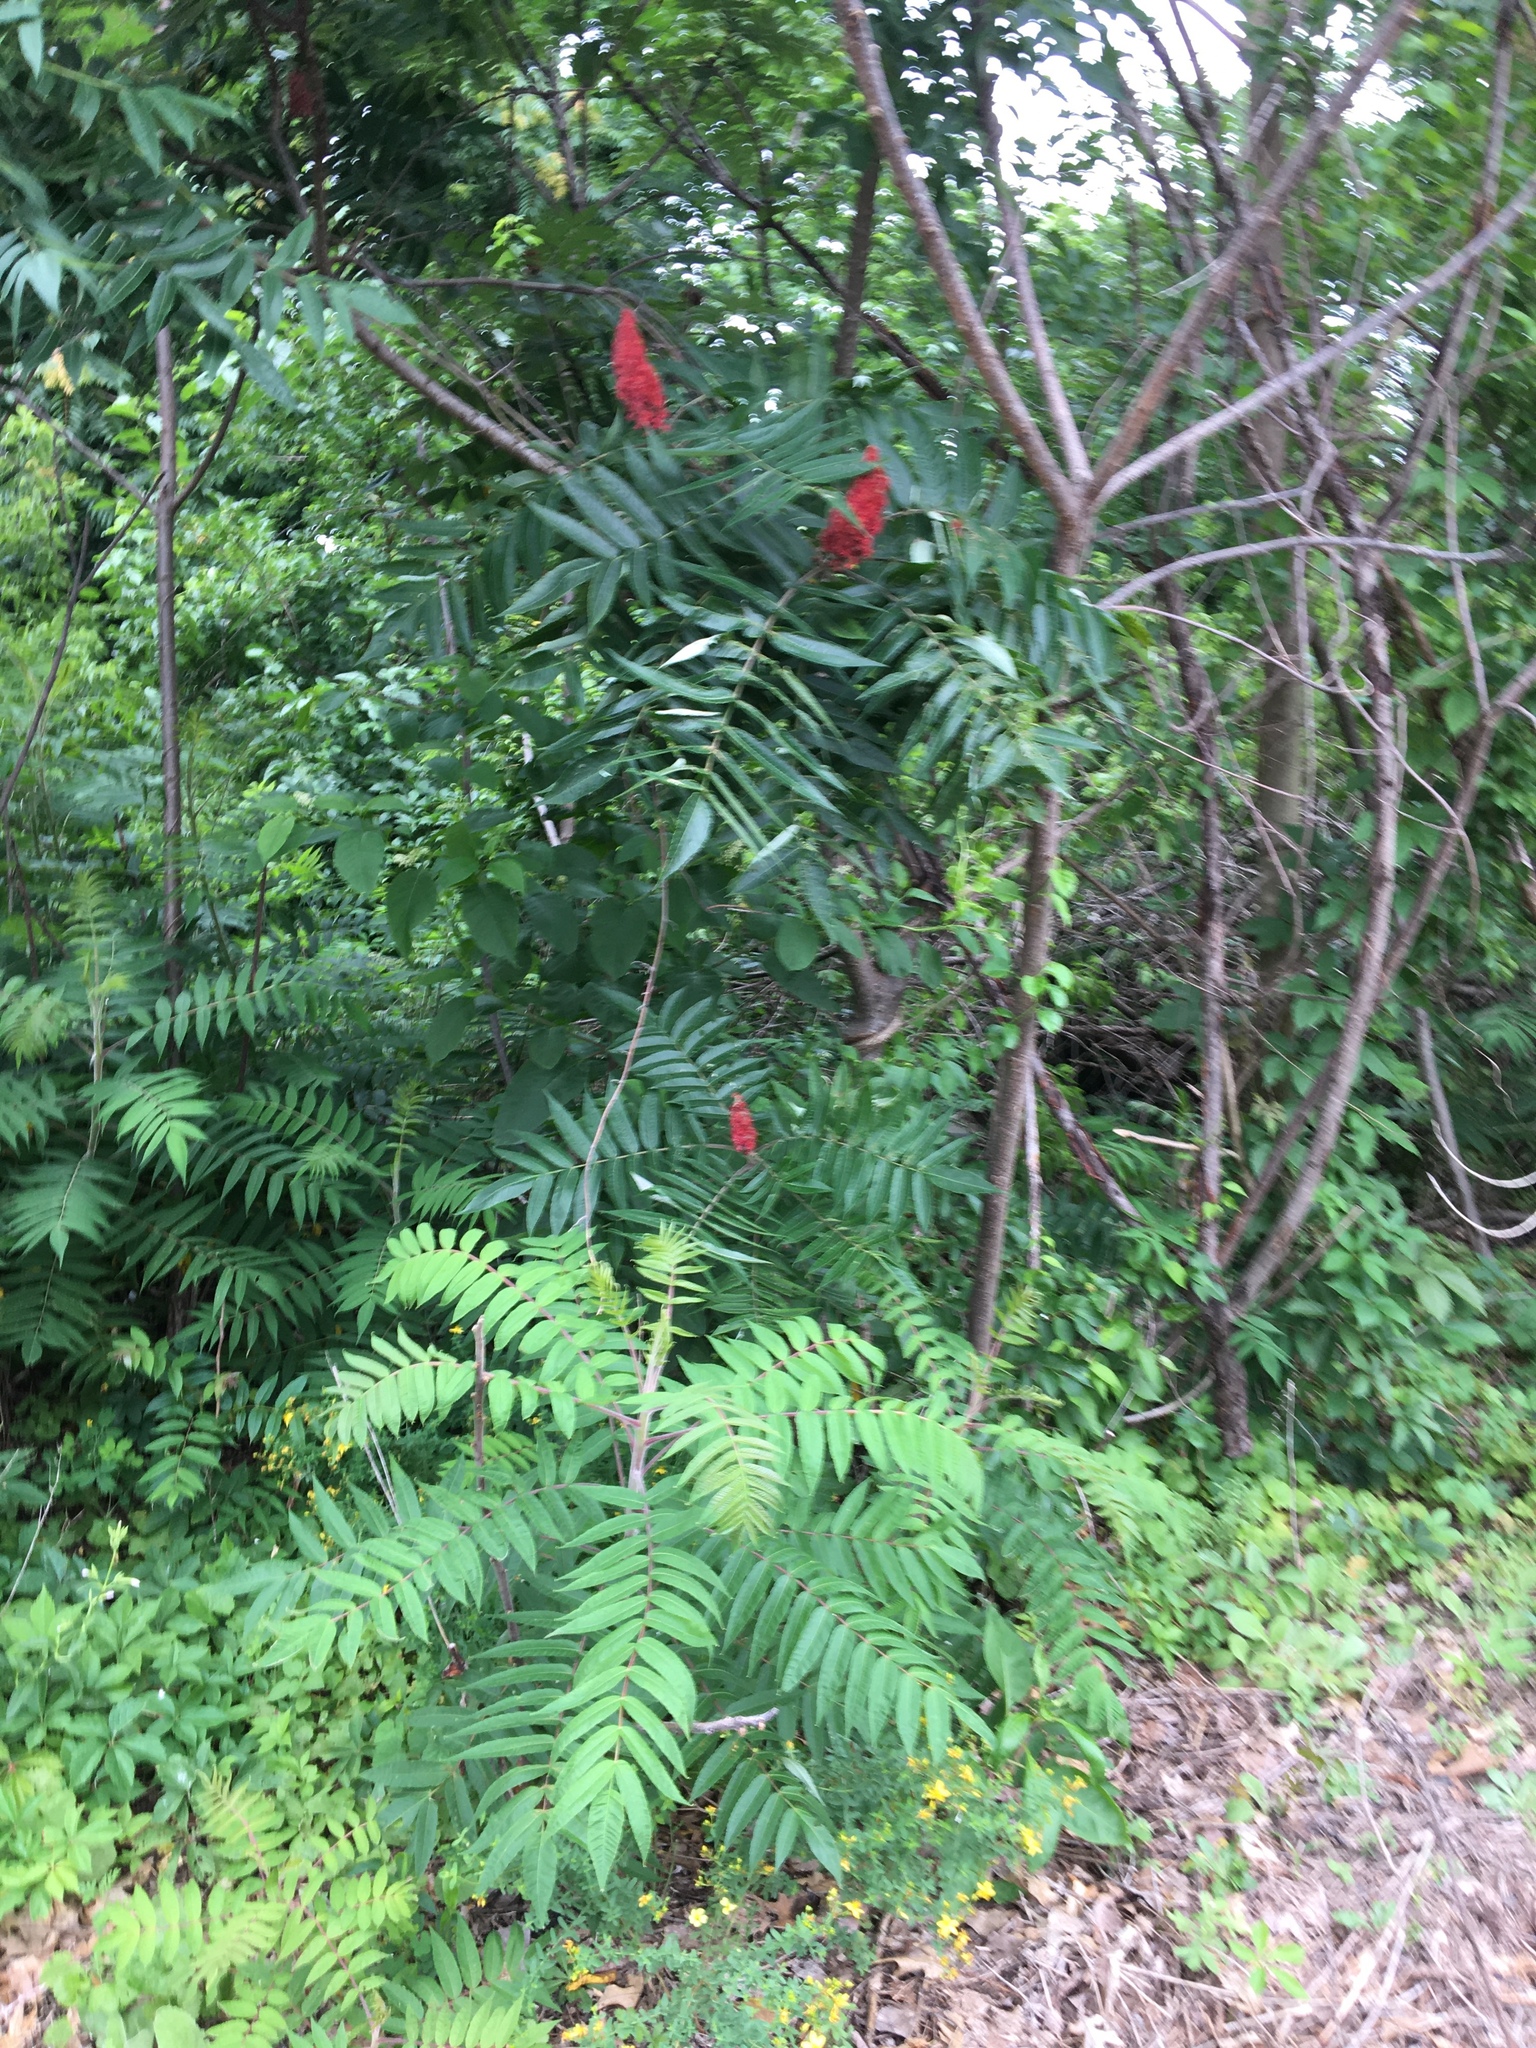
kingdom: Plantae
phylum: Tracheophyta
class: Magnoliopsida
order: Sapindales
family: Anacardiaceae
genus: Rhus
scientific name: Rhus typhina
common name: Staghorn sumac
